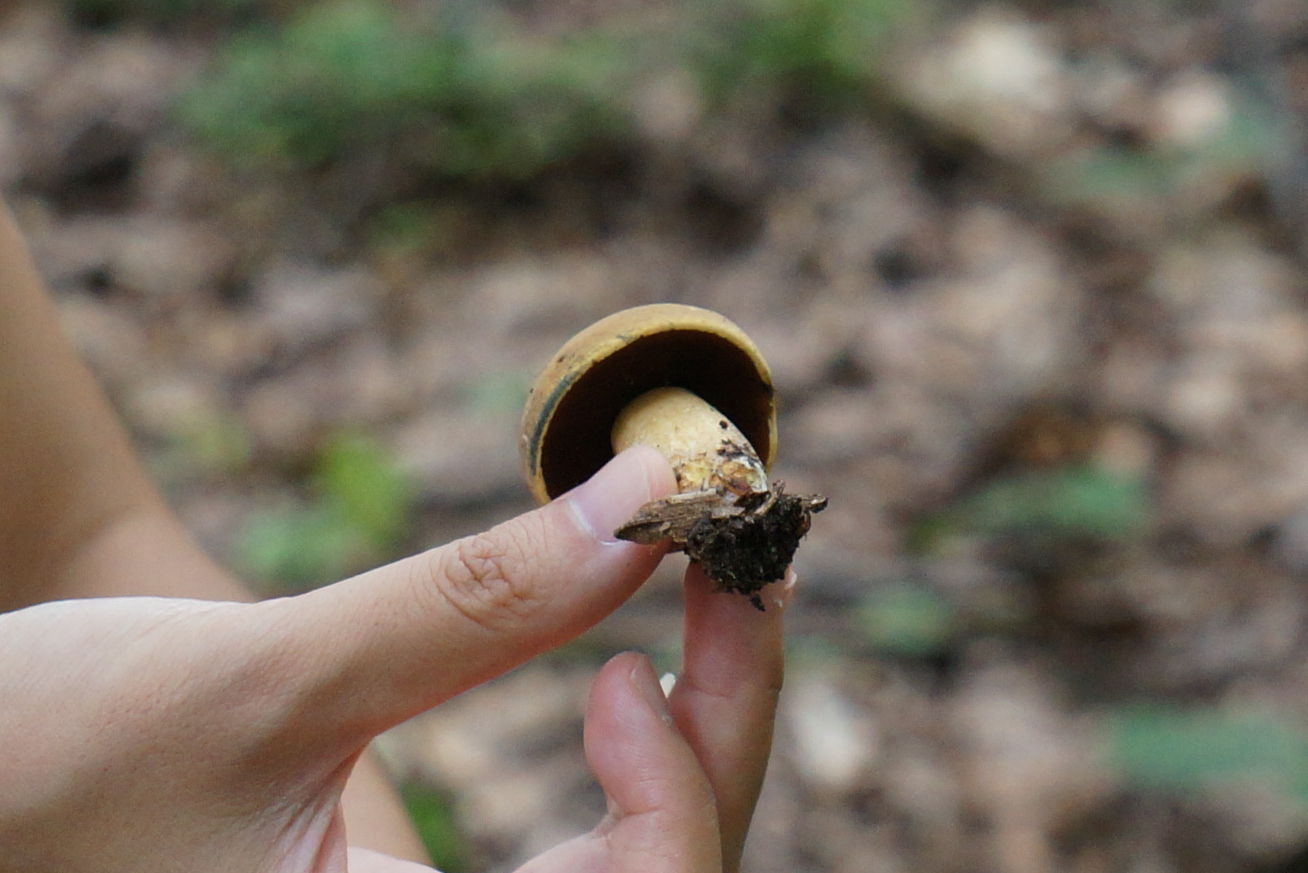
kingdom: Fungi
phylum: Basidiomycota
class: Agaricomycetes
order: Boletales
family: Boletaceae
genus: Boletus
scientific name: Boletus vermiculosoides
